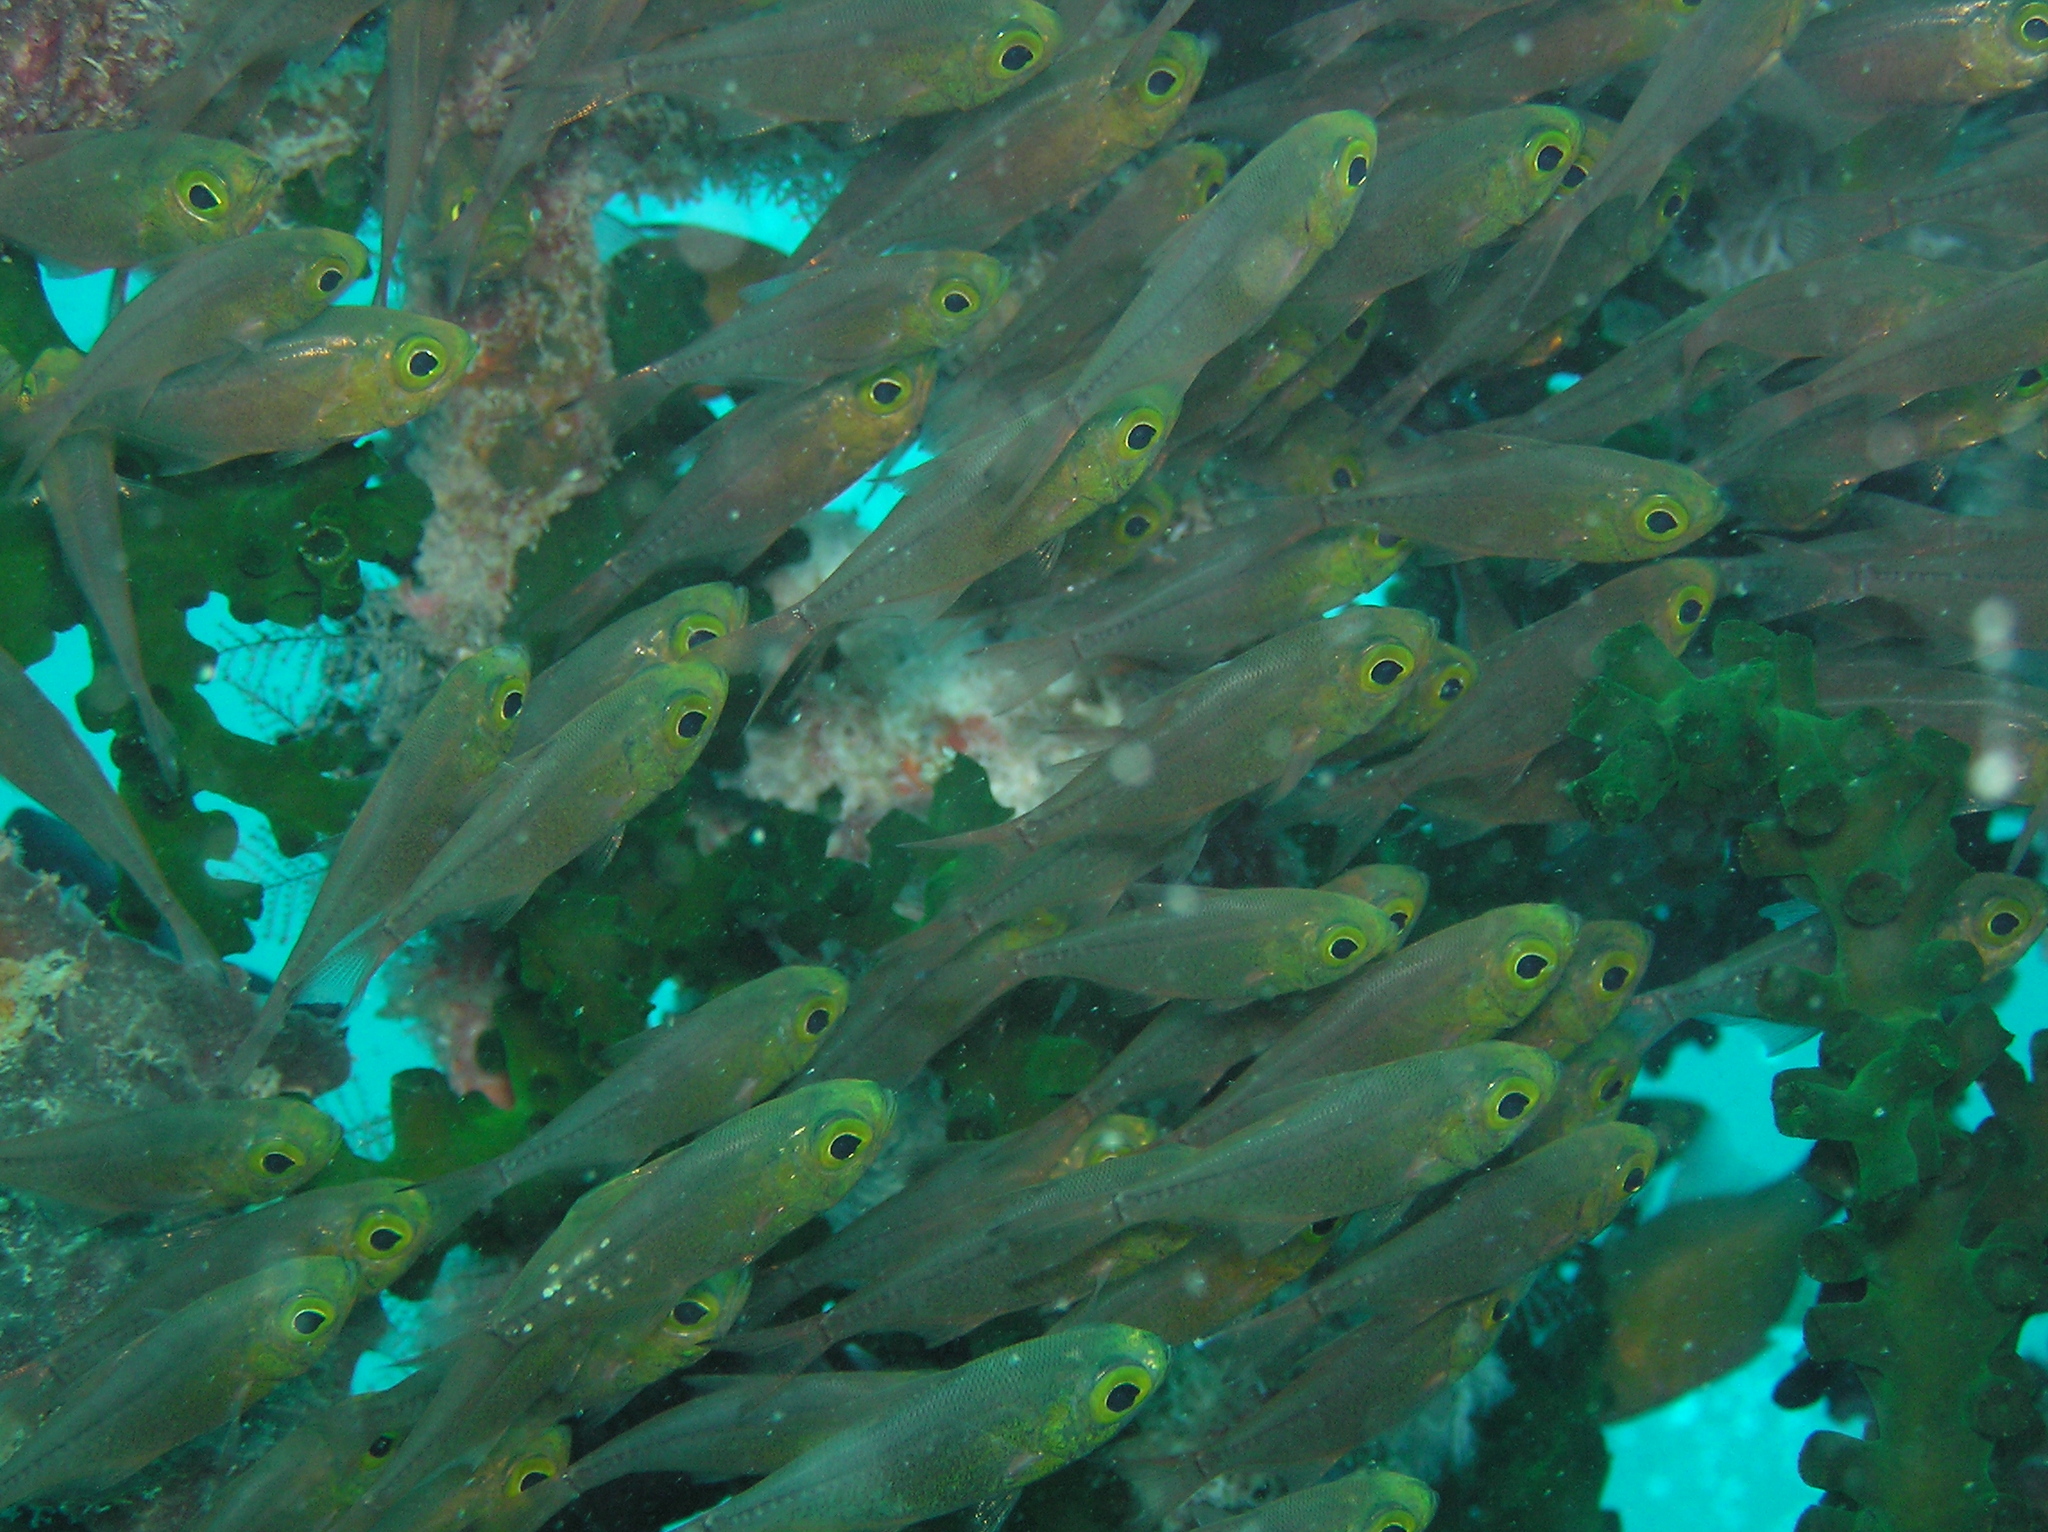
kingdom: Animalia
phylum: Chordata
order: Perciformes
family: Pempheridae
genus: Parapriacanthus
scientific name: Parapriacanthus ransonneti
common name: Pigmy sweeper
